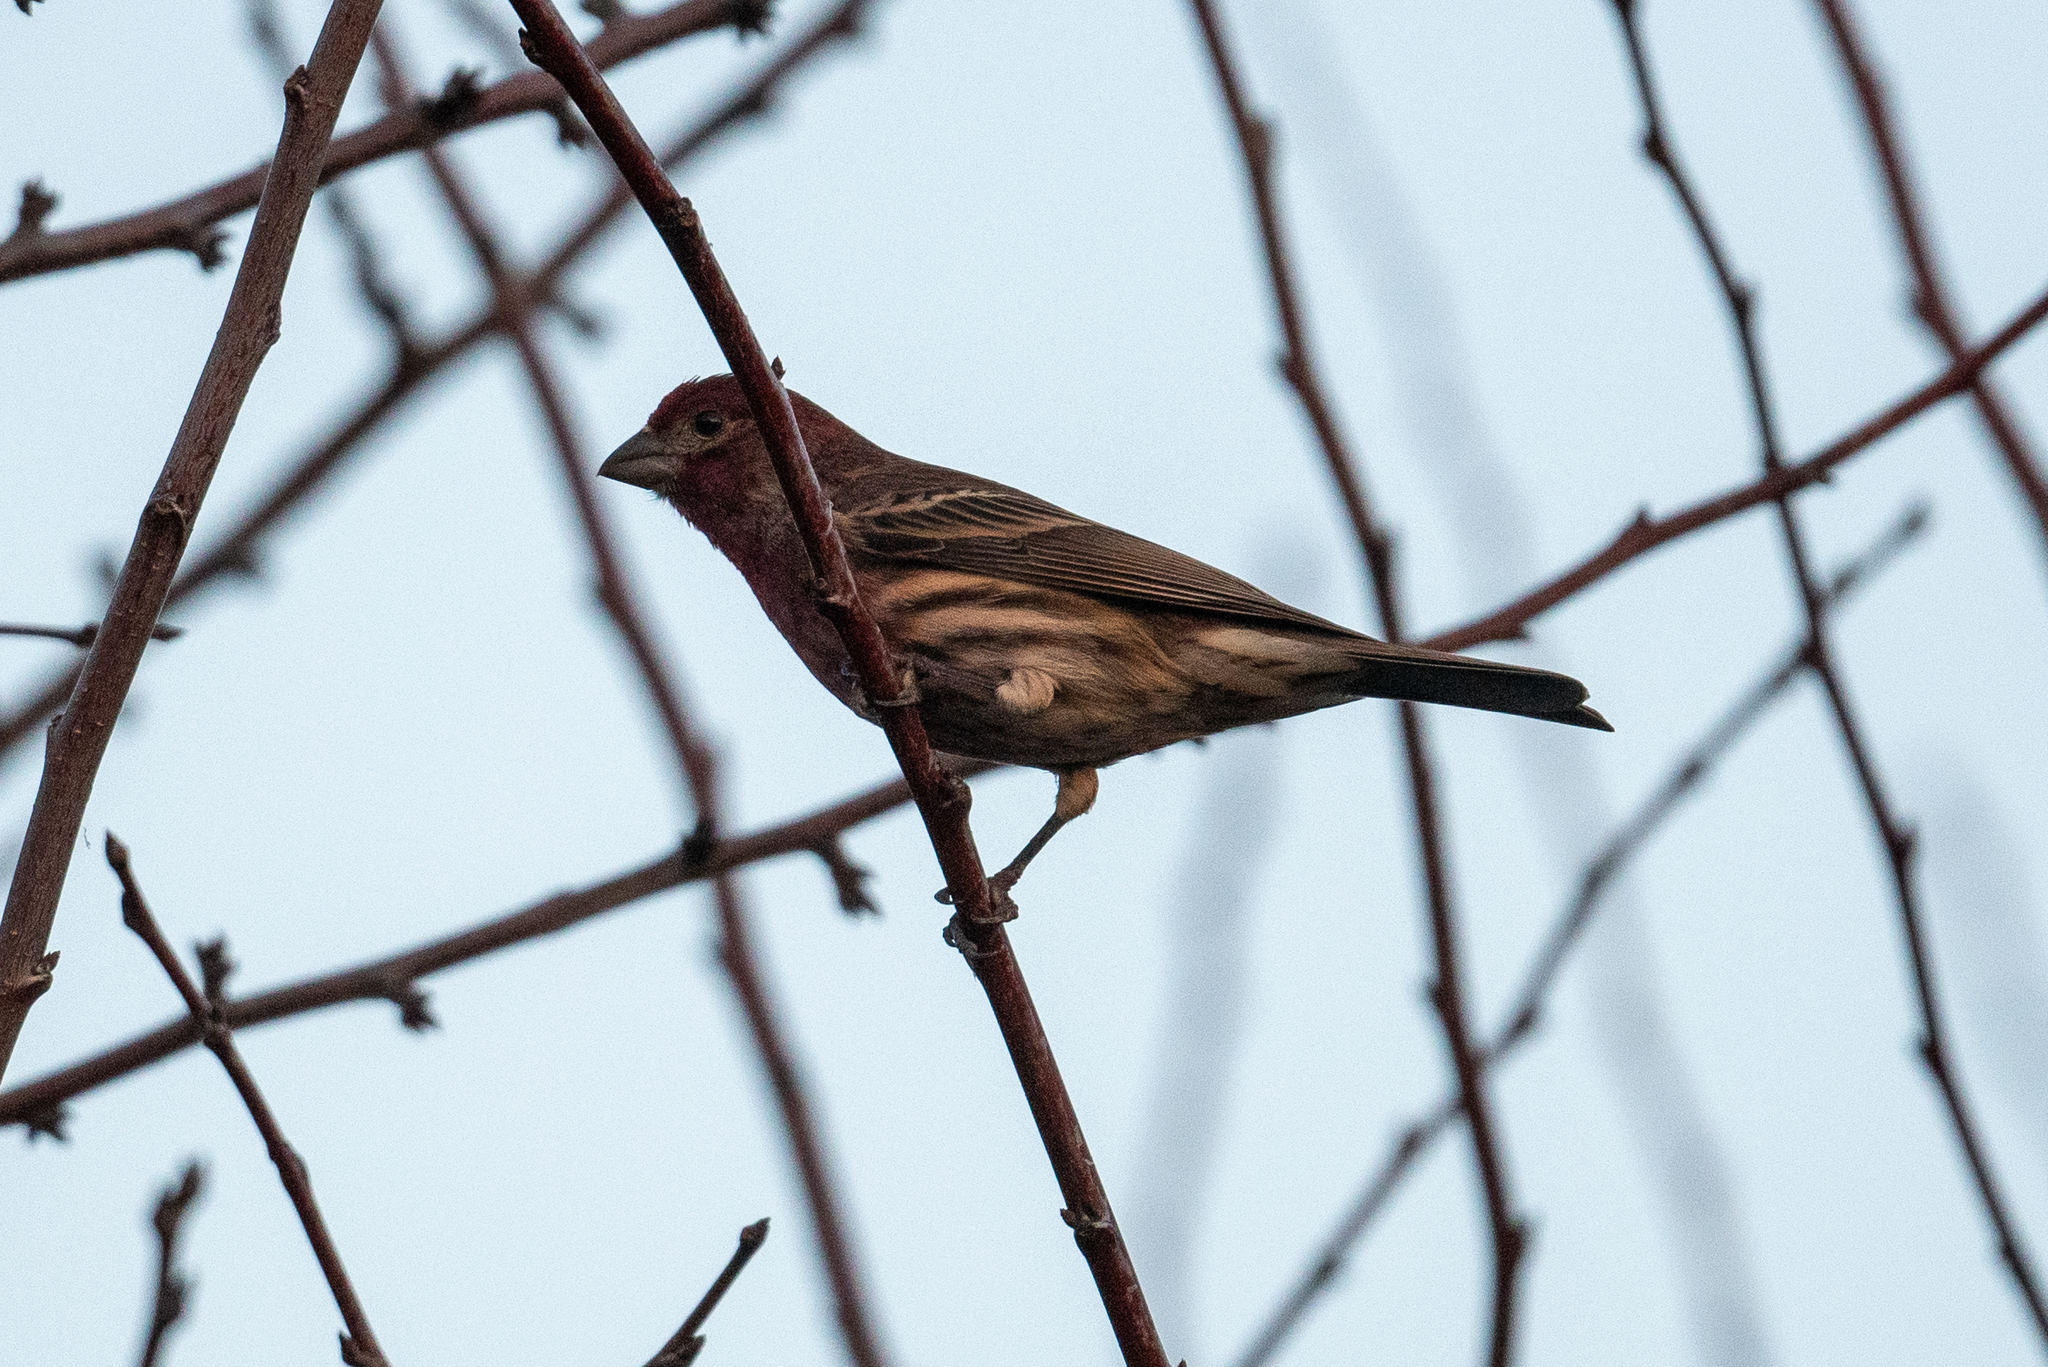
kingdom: Animalia
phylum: Chordata
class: Aves
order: Passeriformes
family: Fringillidae
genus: Haemorhous
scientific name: Haemorhous mexicanus
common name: House finch
